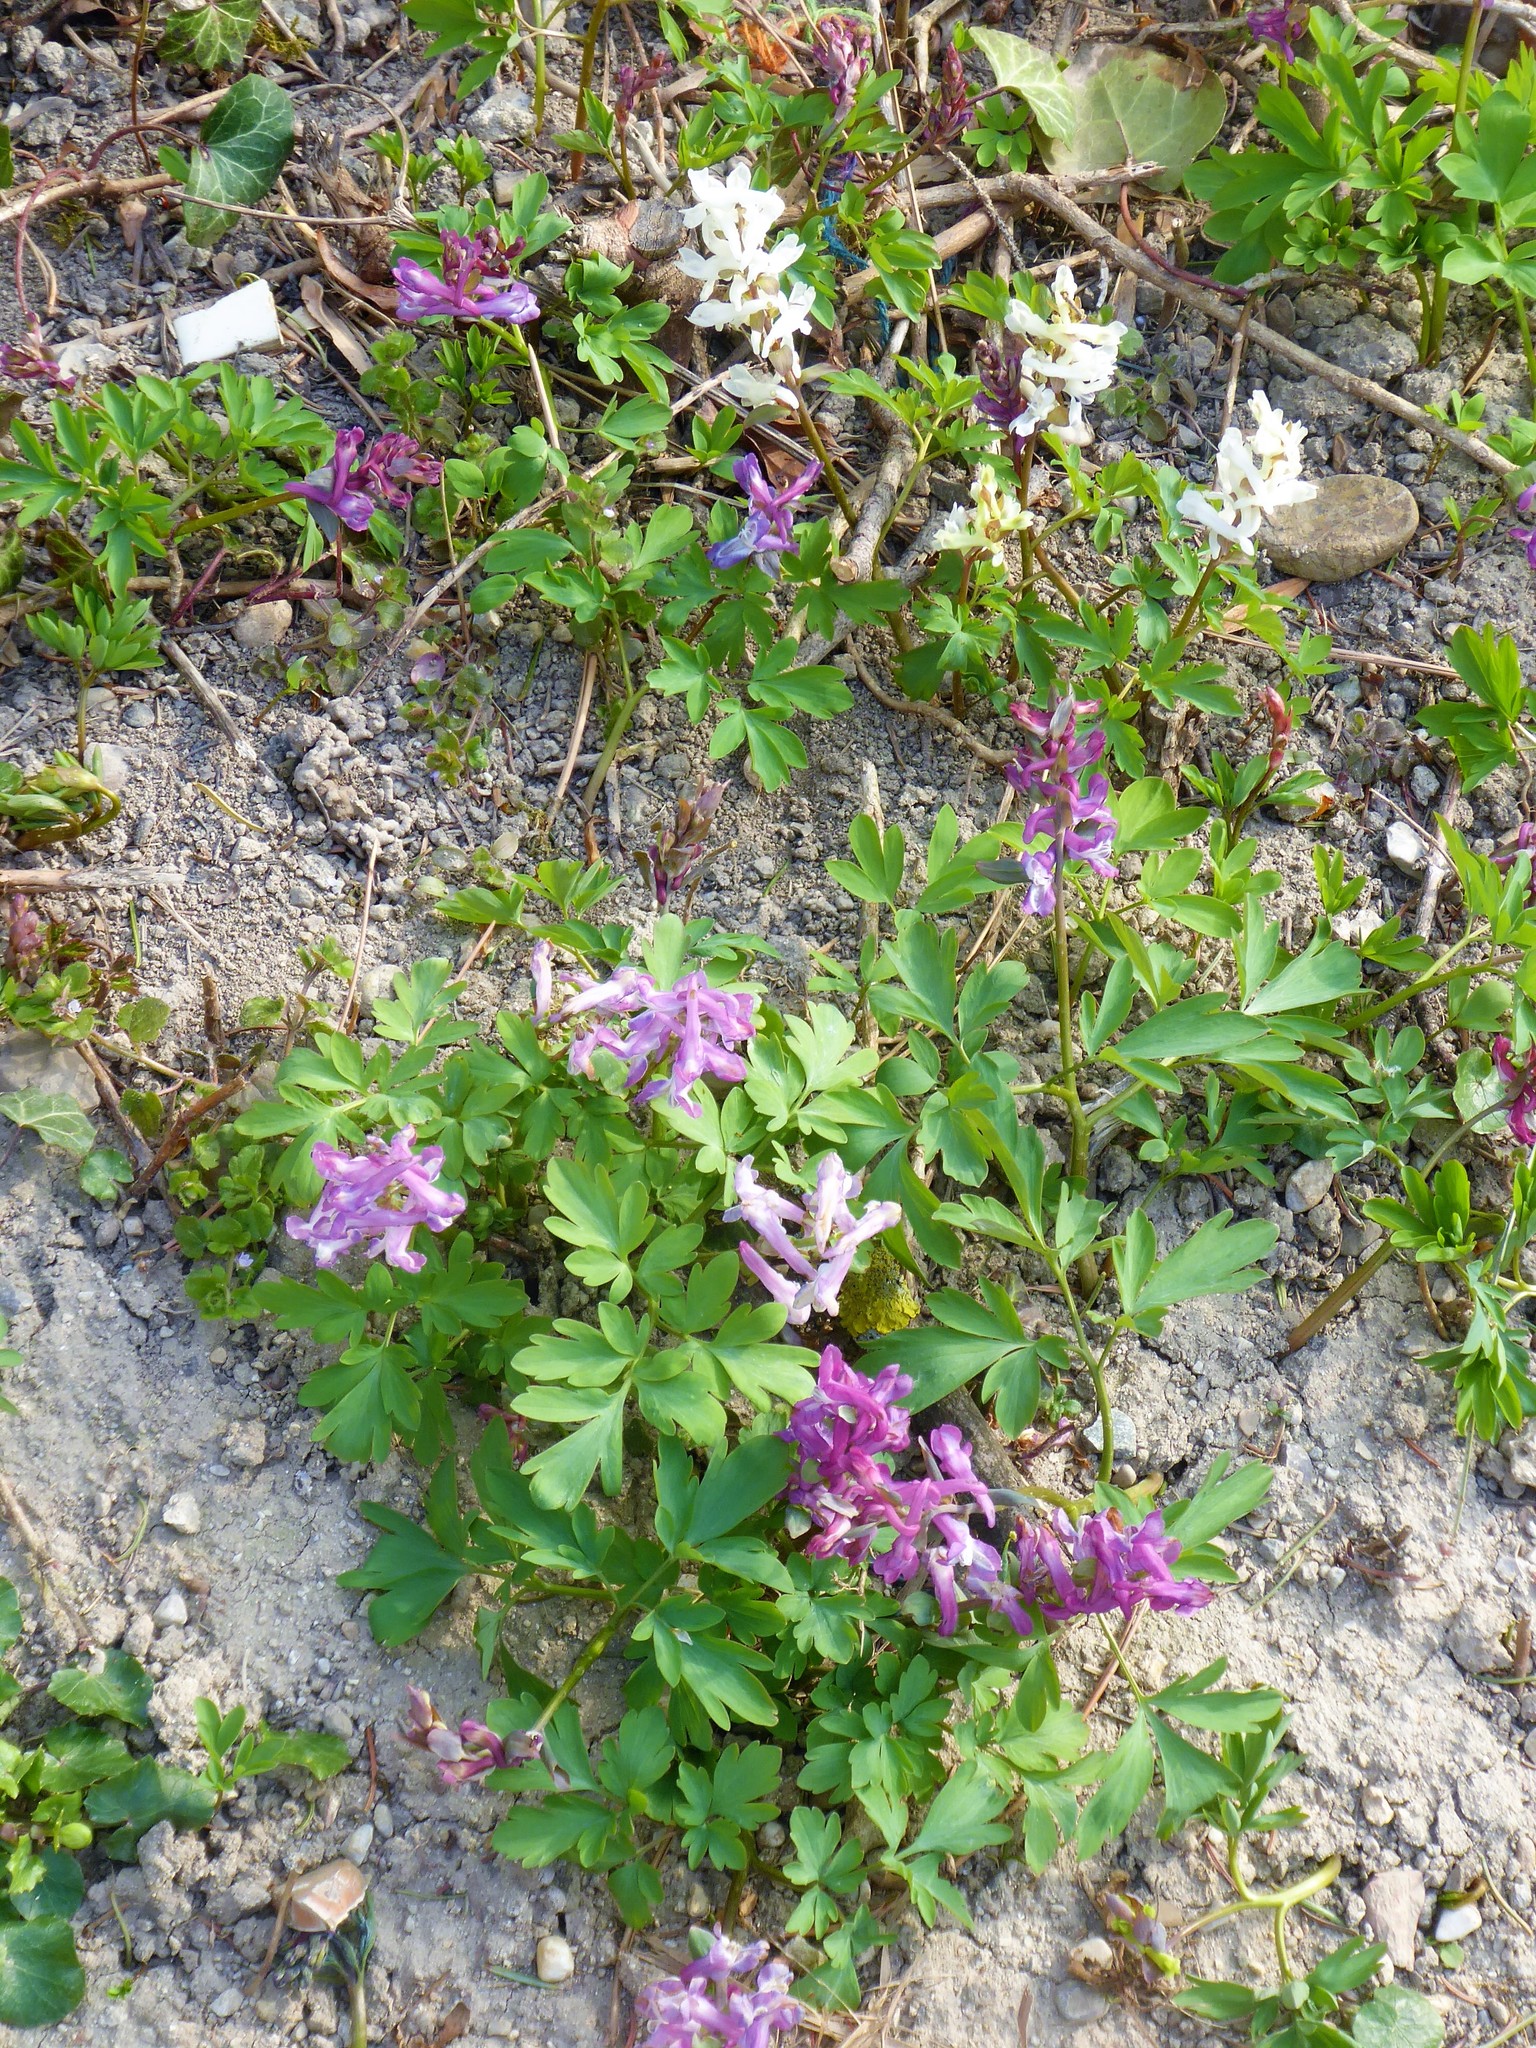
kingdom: Plantae
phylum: Tracheophyta
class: Magnoliopsida
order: Ranunculales
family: Papaveraceae
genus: Corydalis
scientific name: Corydalis cava
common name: Hollowroot
